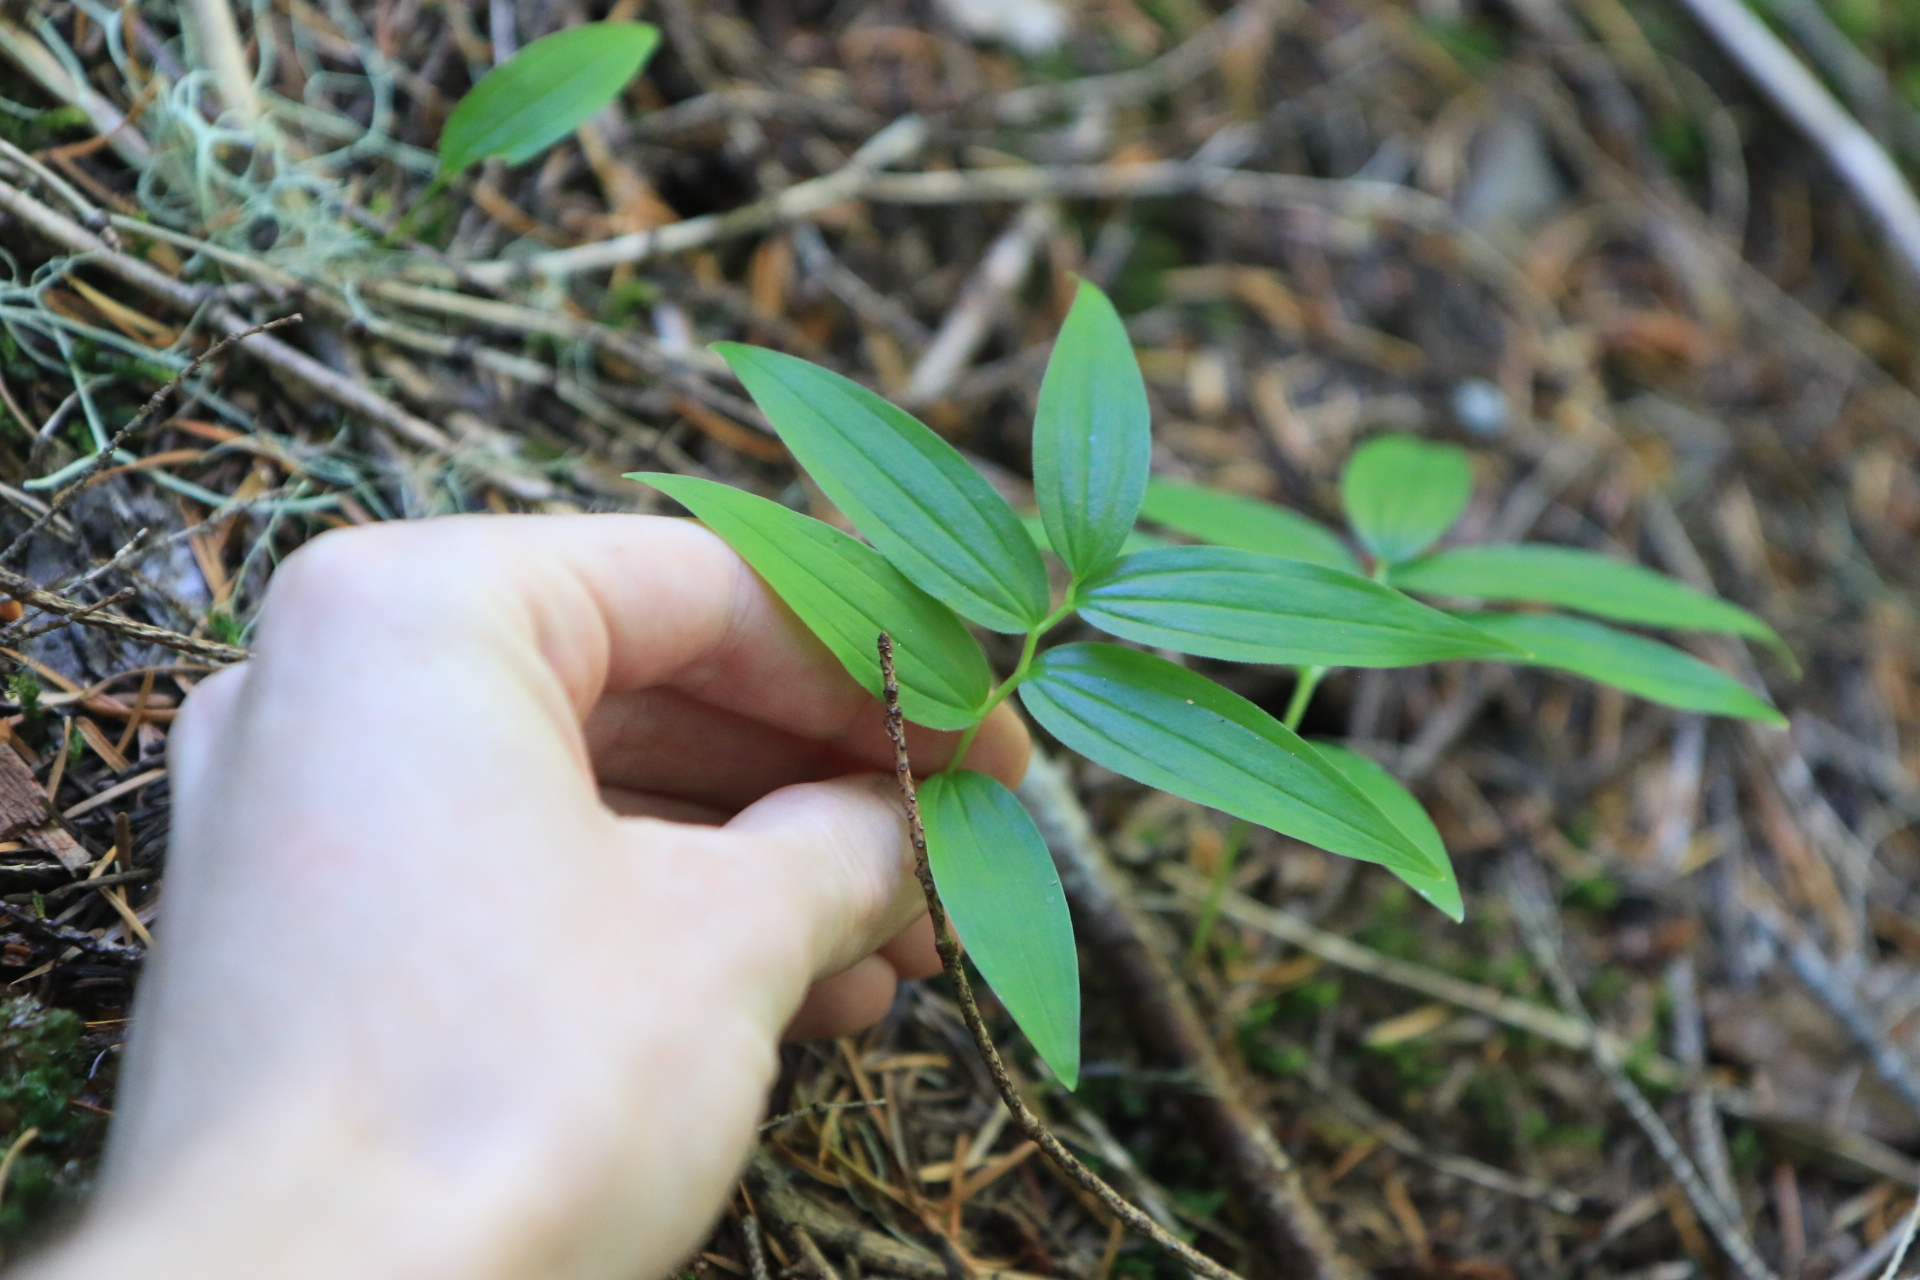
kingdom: Plantae
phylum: Tracheophyta
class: Liliopsida
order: Asparagales
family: Asparagaceae
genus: Maianthemum
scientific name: Maianthemum stellatum
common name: Little false solomon's seal
